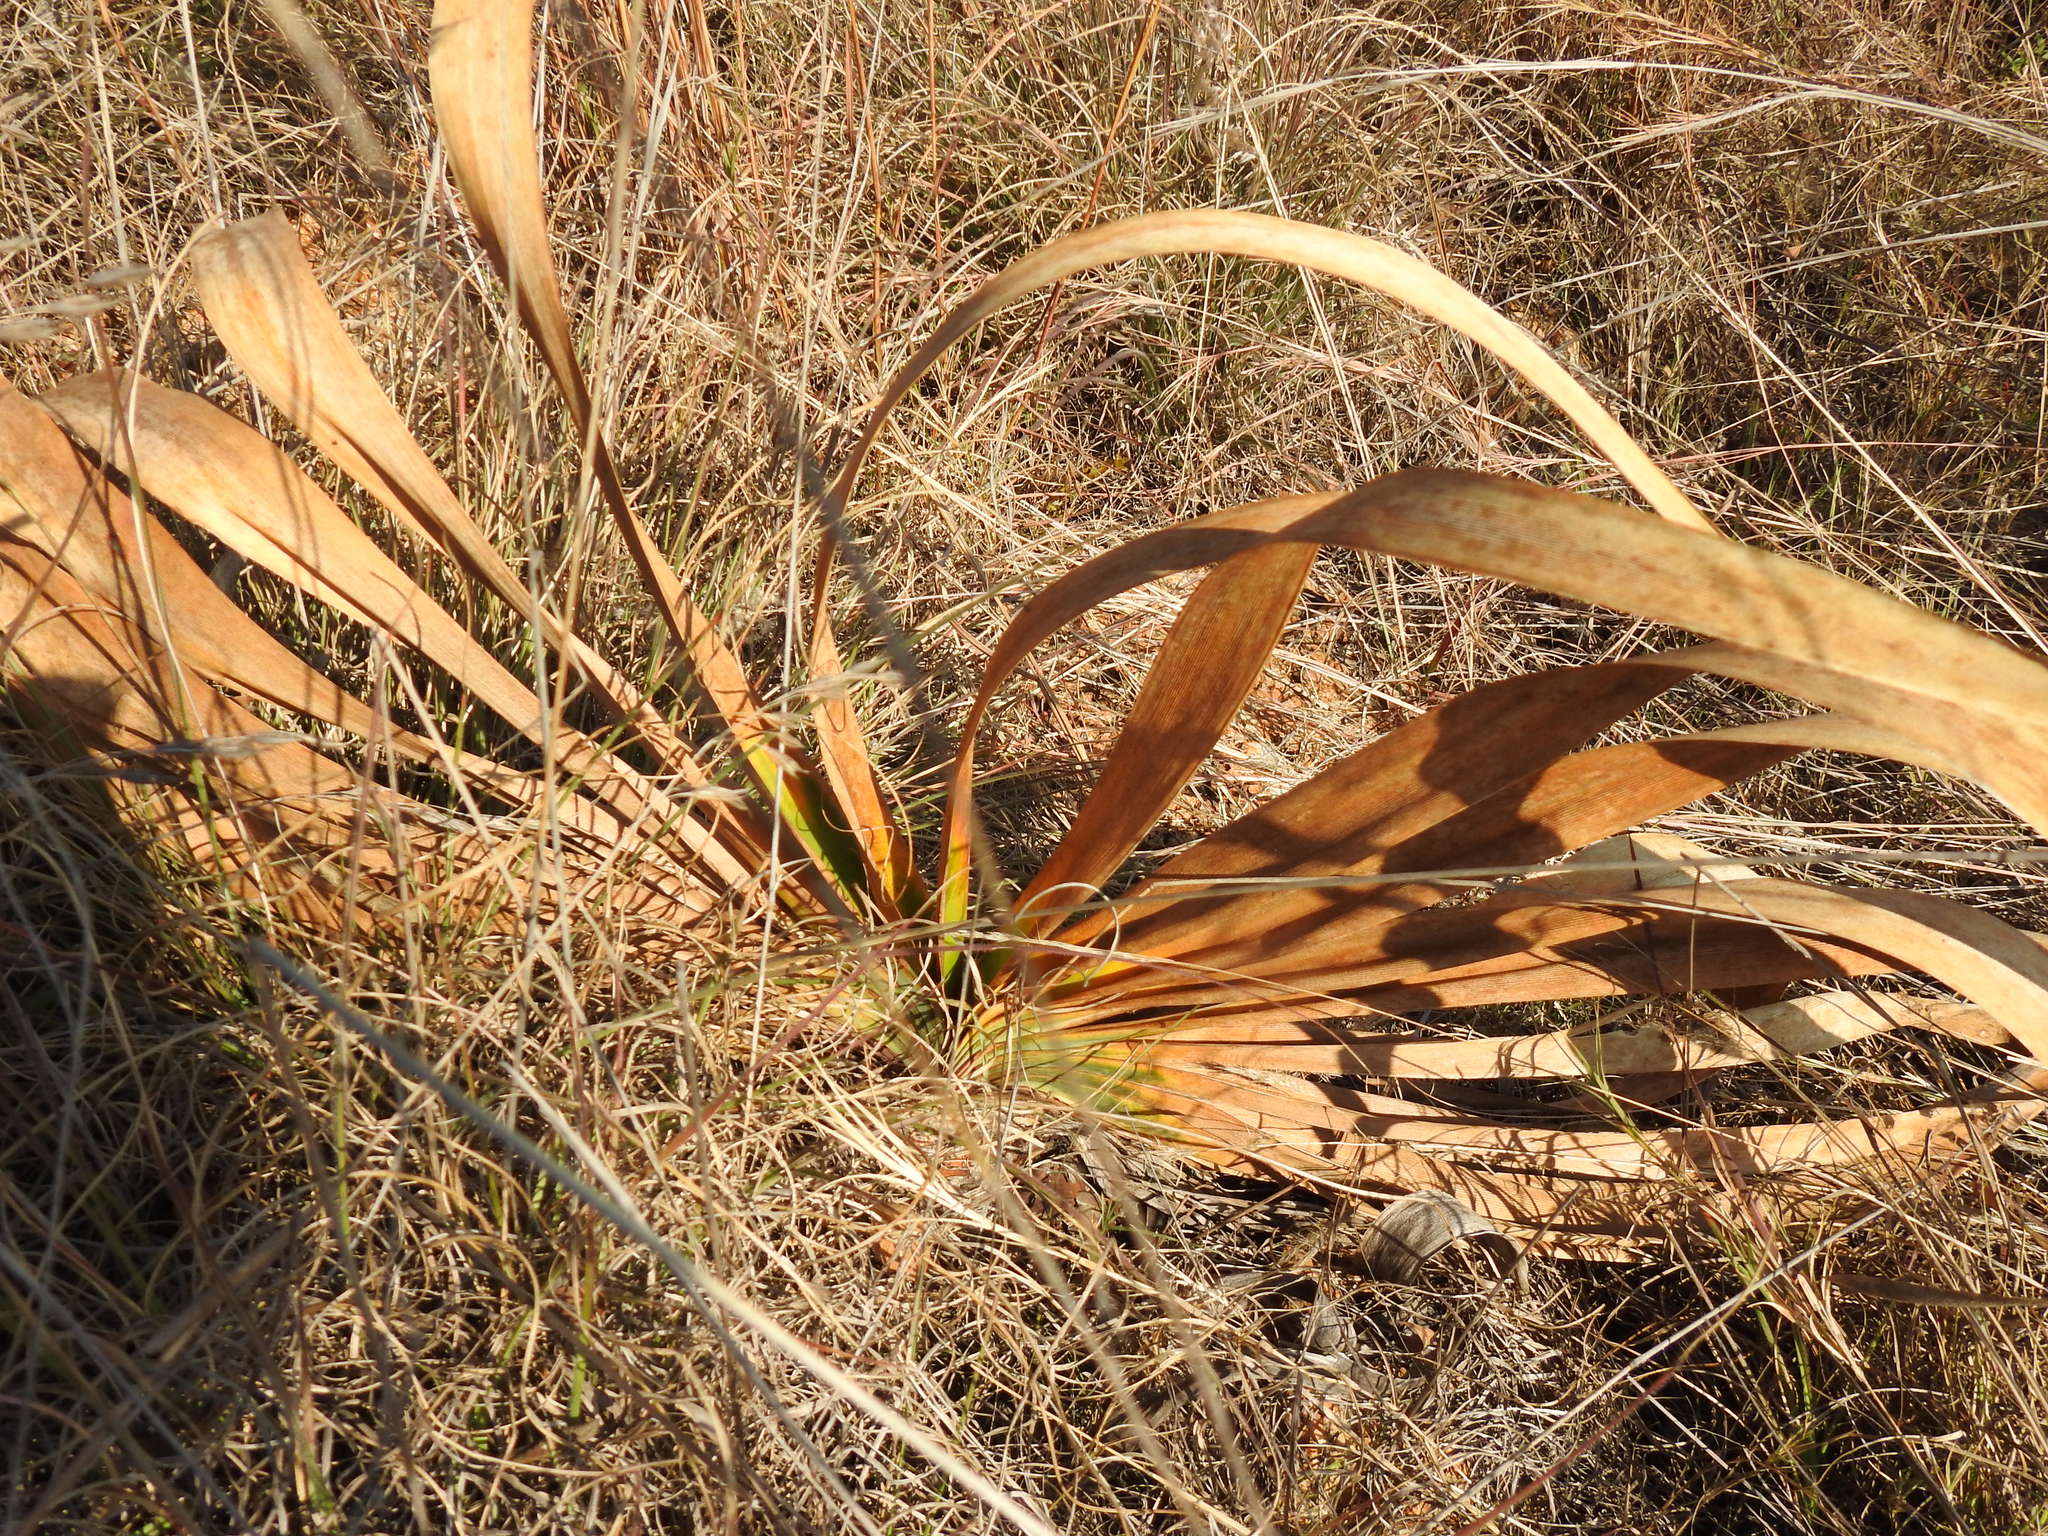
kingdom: Plantae
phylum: Tracheophyta
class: Liliopsida
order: Asparagales
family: Amaryllidaceae
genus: Boophone
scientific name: Boophone disticha
